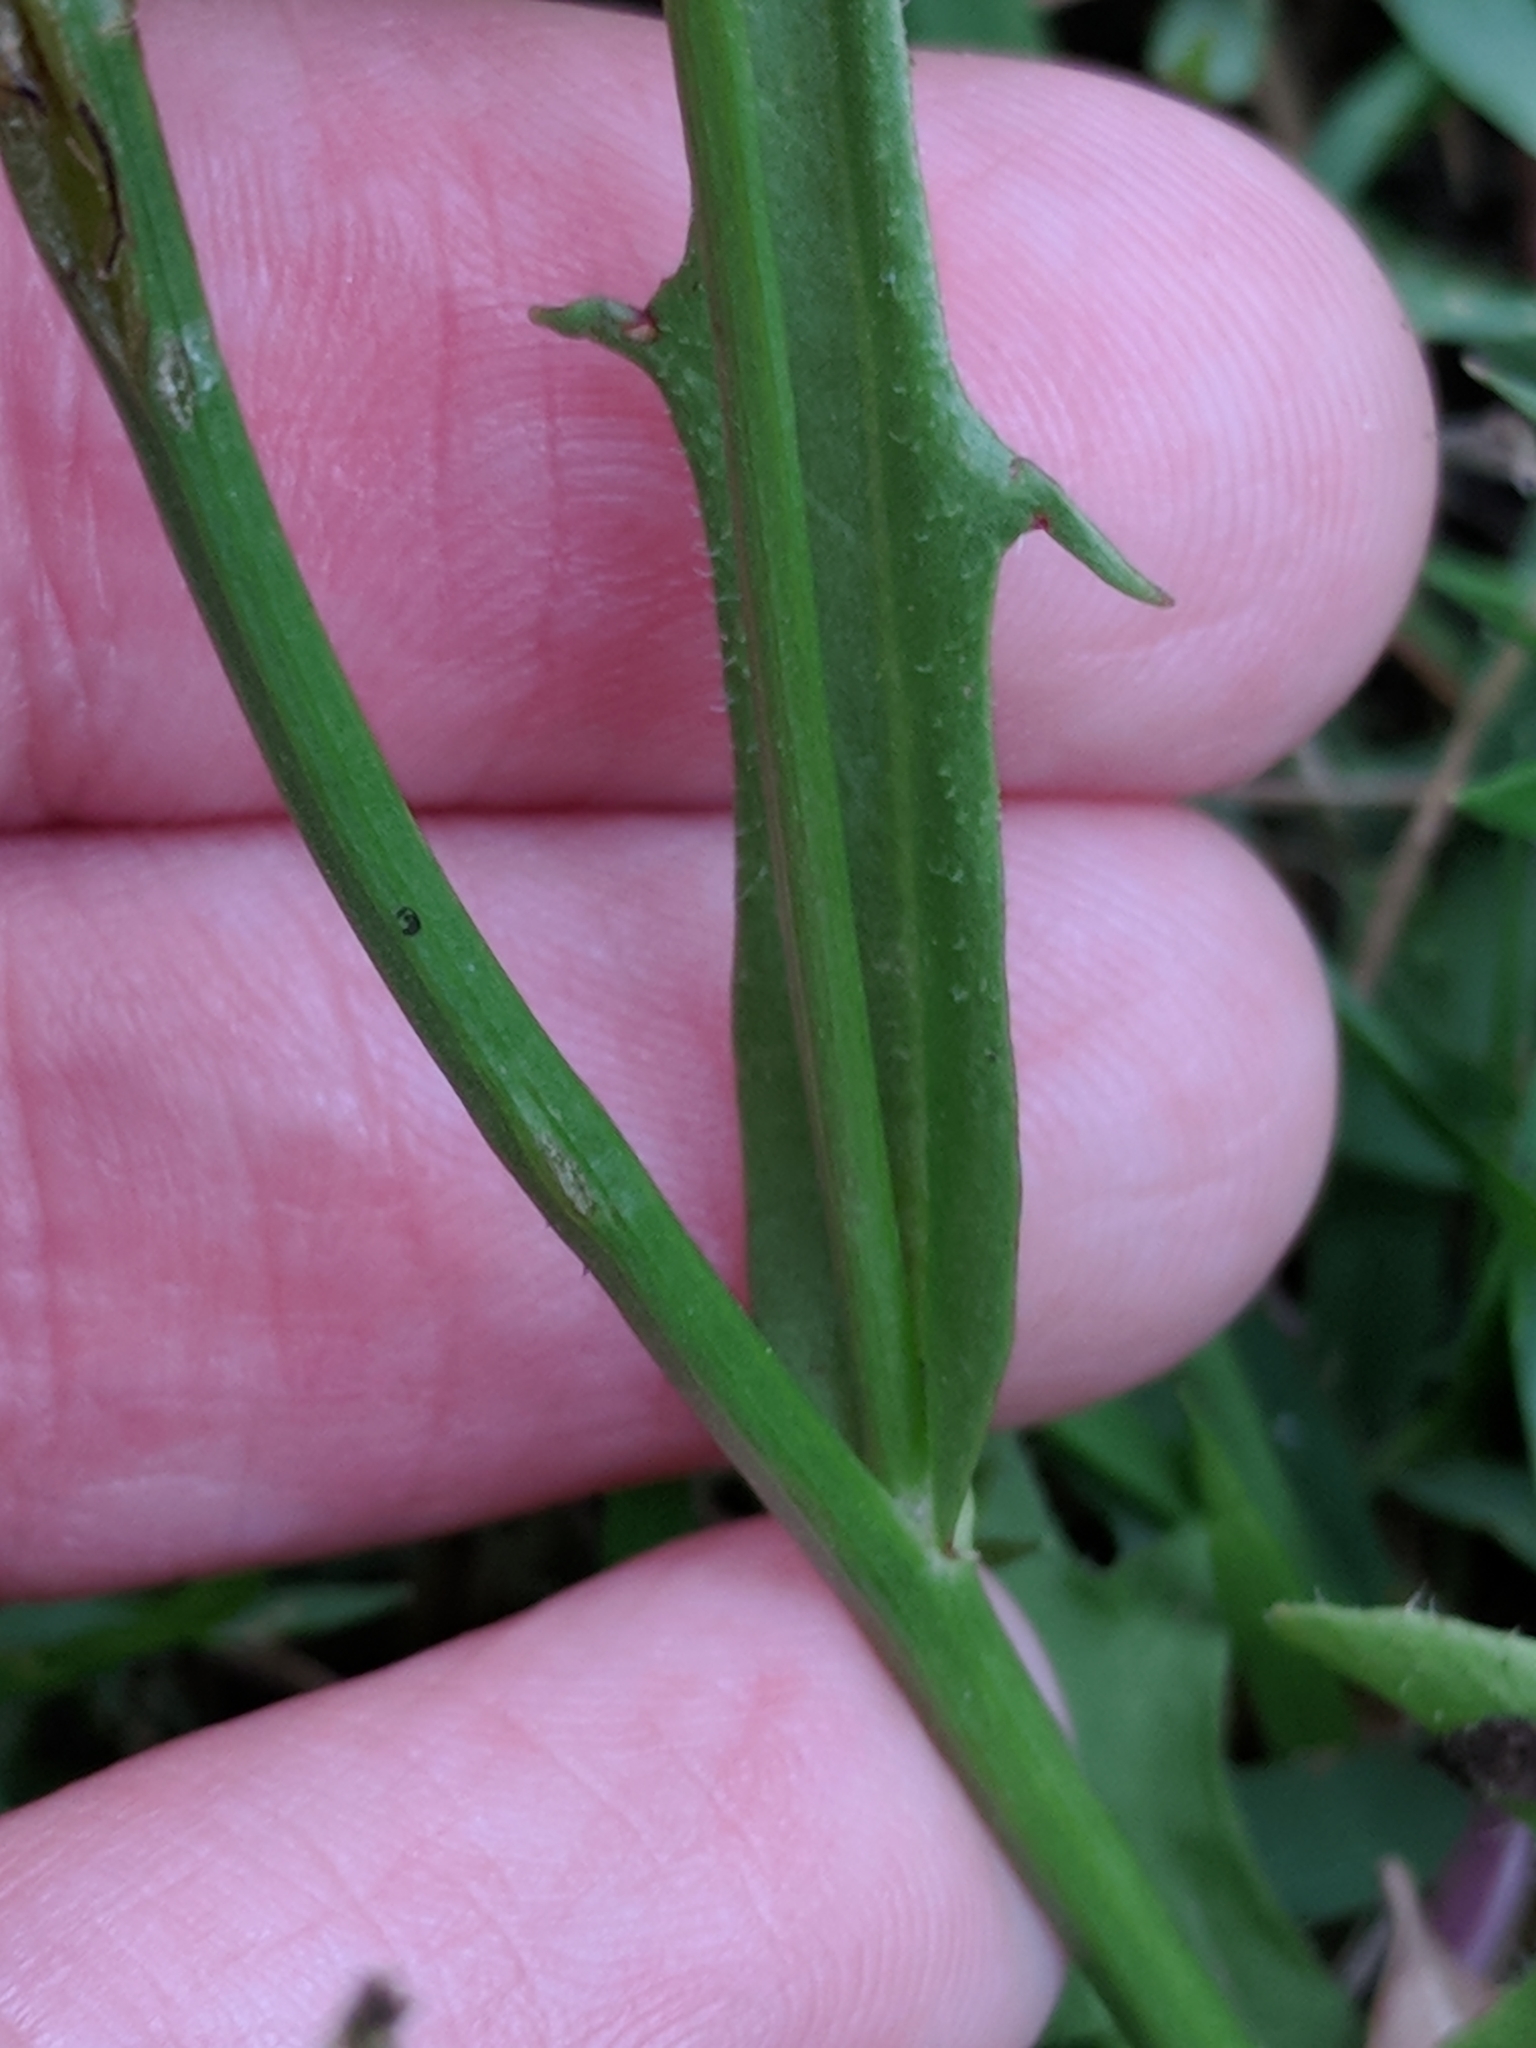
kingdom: Plantae
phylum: Tracheophyta
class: Magnoliopsida
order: Asterales
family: Asteraceae
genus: Hypochaeris
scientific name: Hypochaeris albiflora
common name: White flatweed
